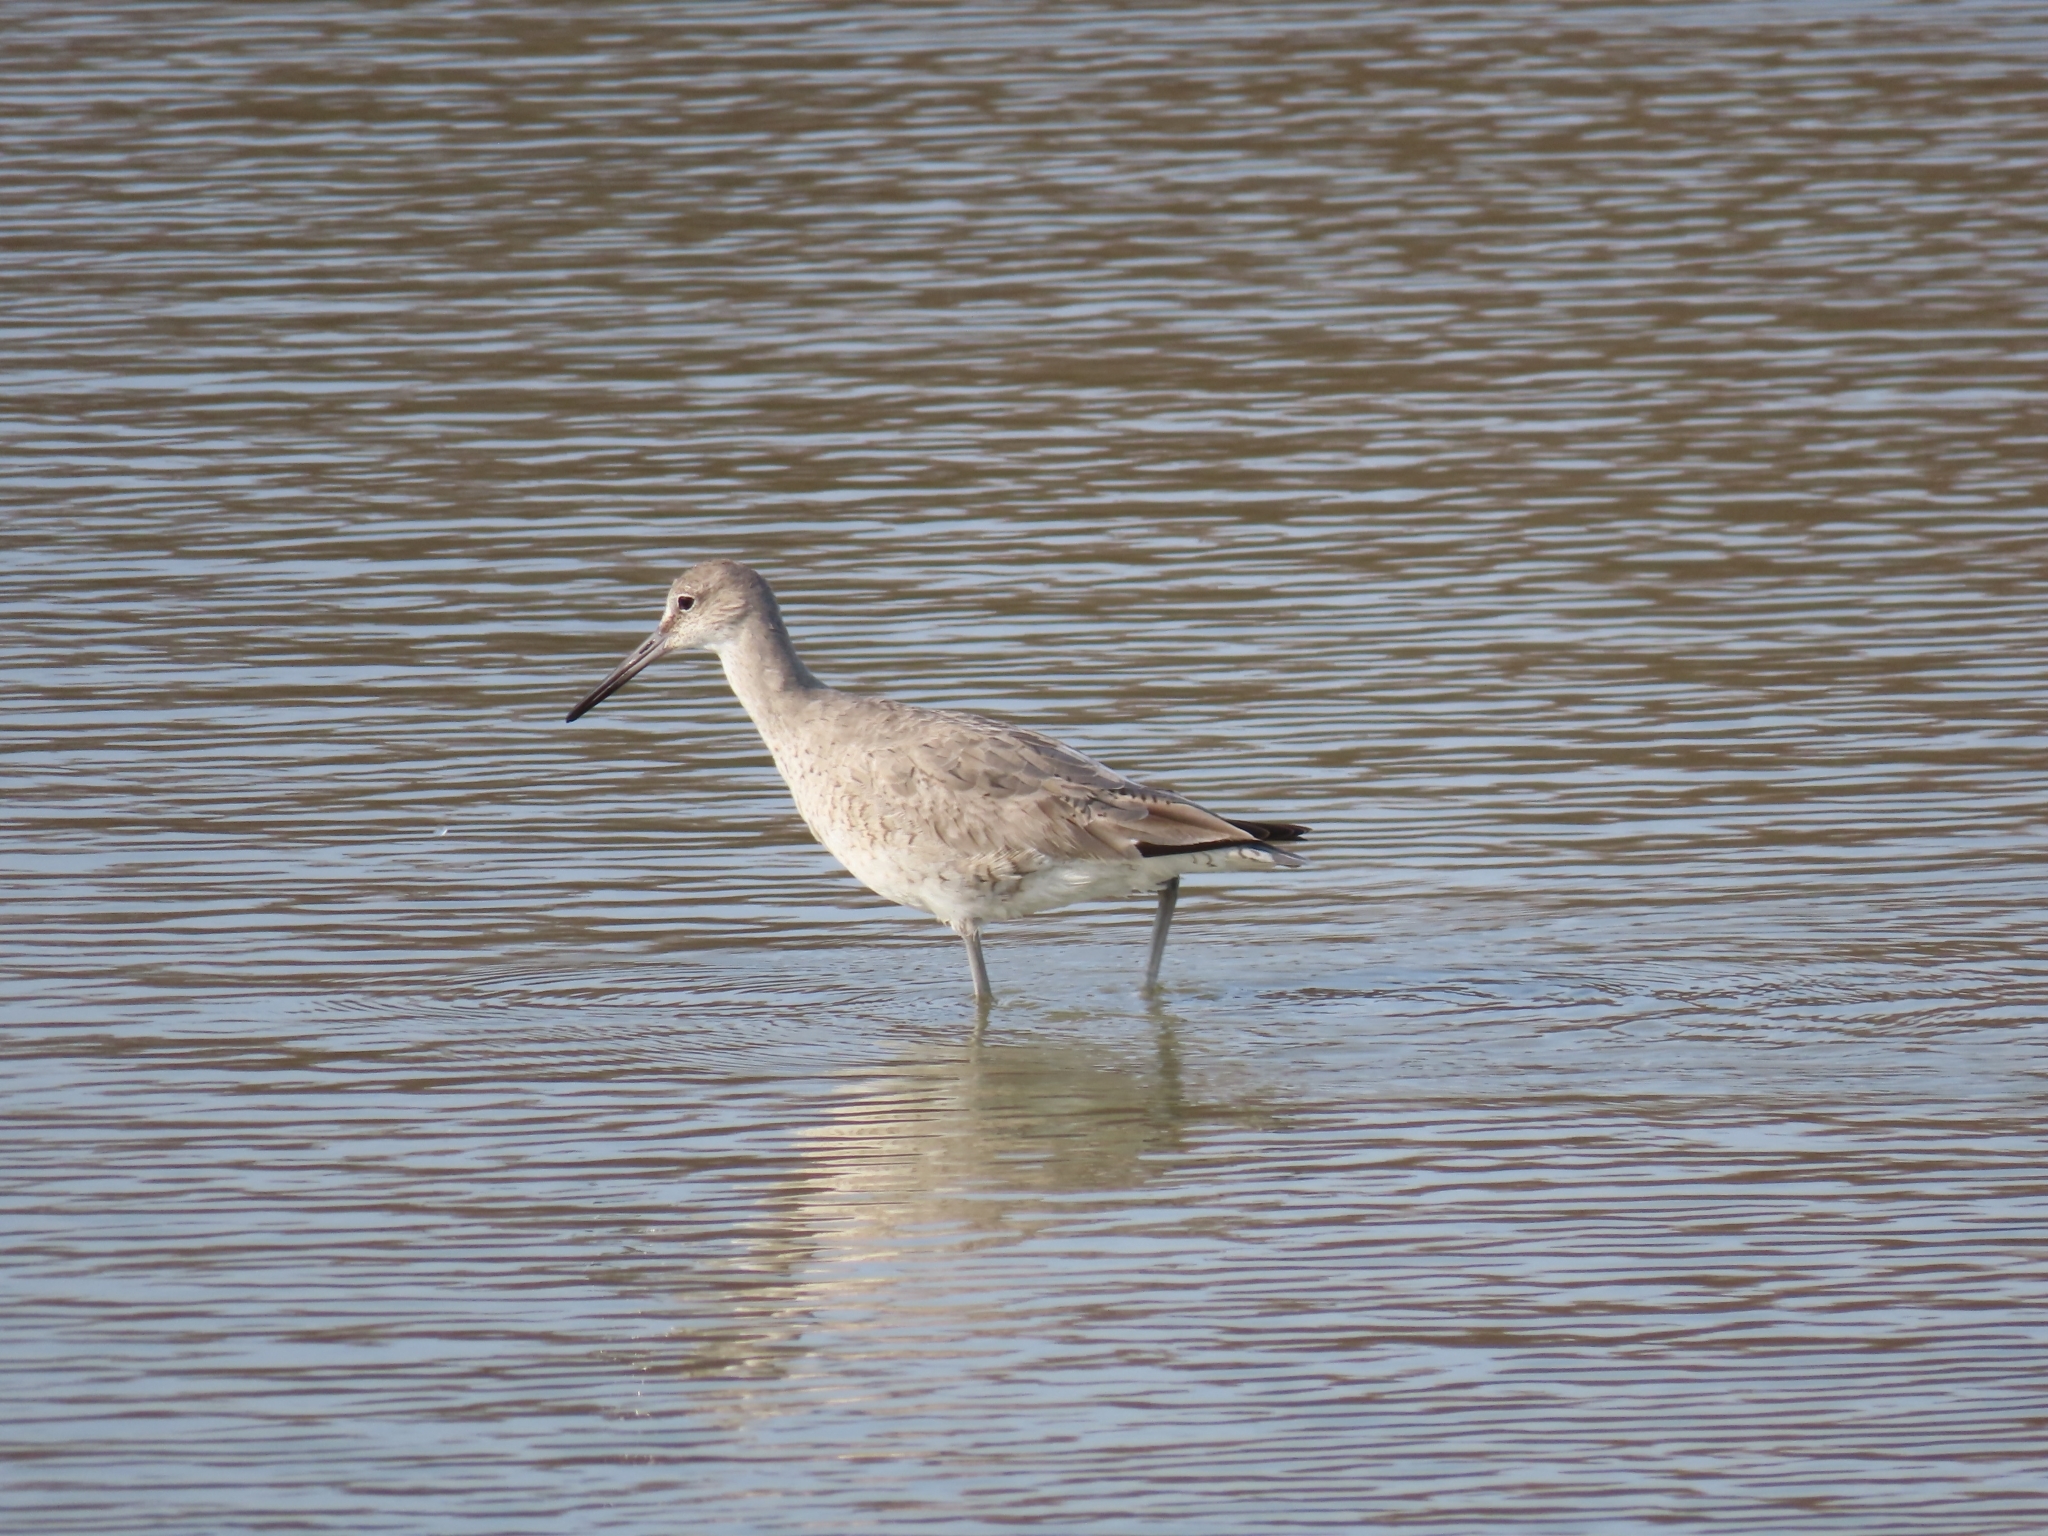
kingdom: Animalia
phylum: Chordata
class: Aves
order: Charadriiformes
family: Scolopacidae
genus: Tringa
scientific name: Tringa semipalmata
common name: Willet
